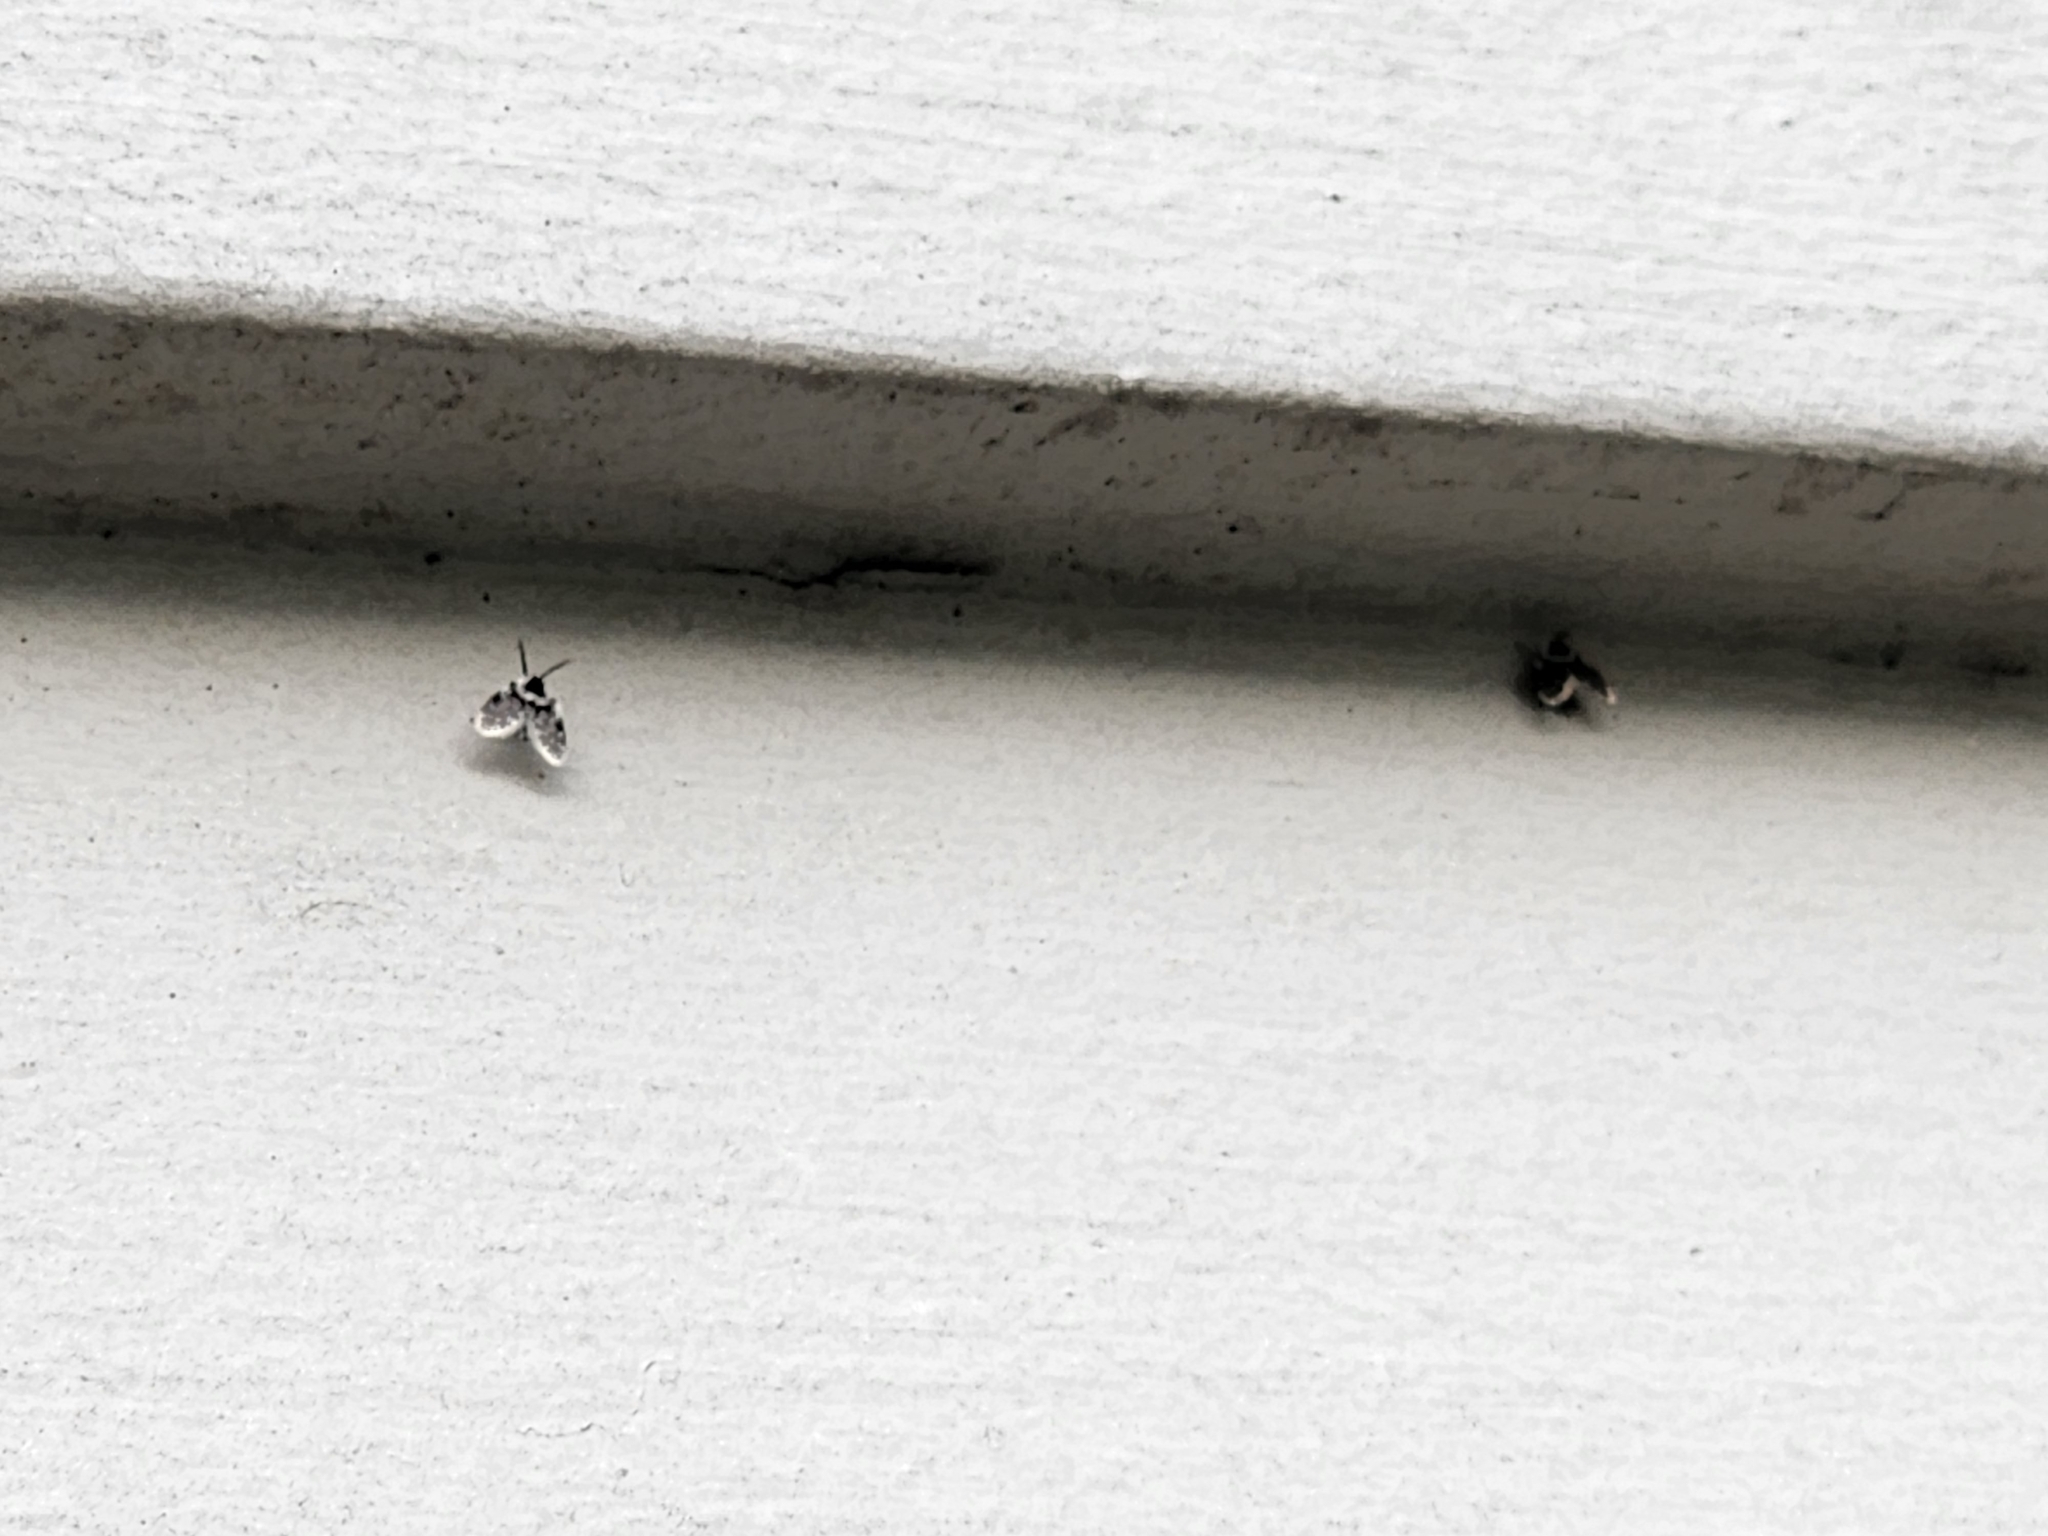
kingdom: Animalia
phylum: Arthropoda
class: Insecta
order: Diptera
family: Psychodidae
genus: Lepiseodina
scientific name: Lepiseodina
